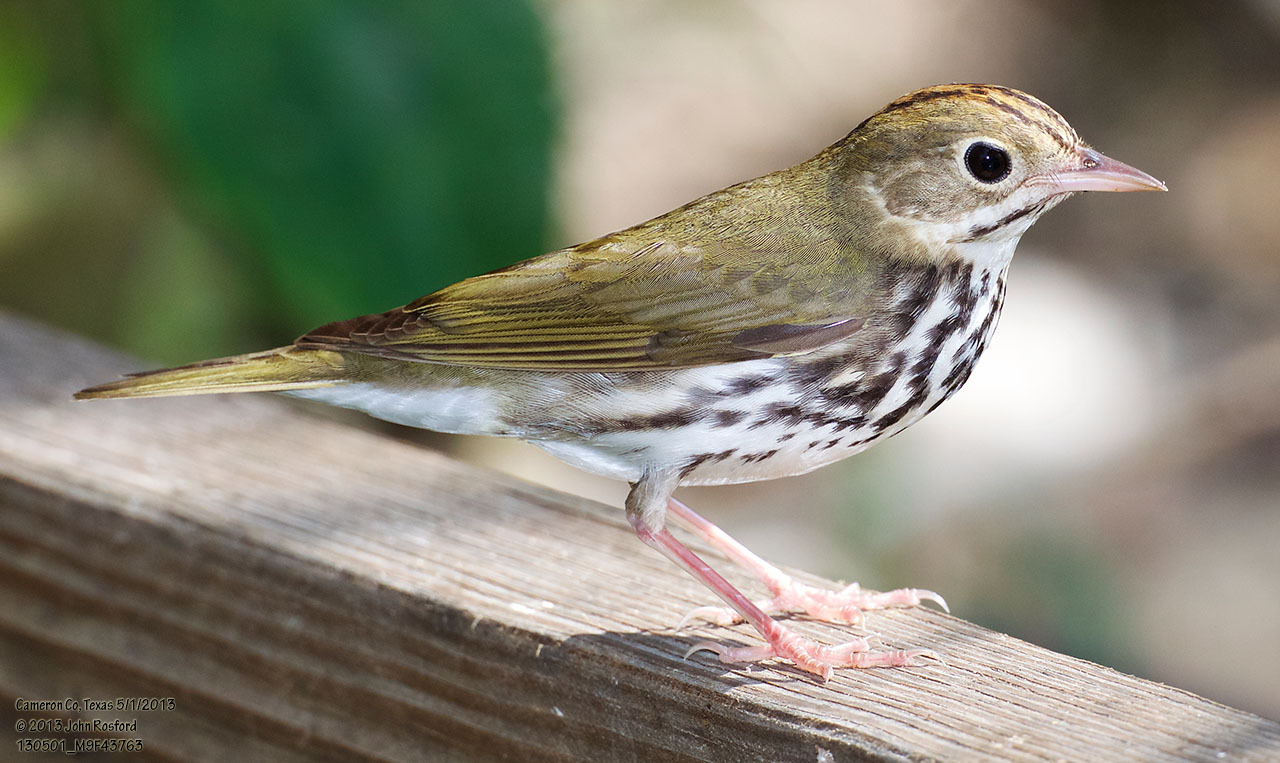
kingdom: Animalia
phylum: Chordata
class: Aves
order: Passeriformes
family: Parulidae
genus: Seiurus
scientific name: Seiurus aurocapilla
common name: Ovenbird
